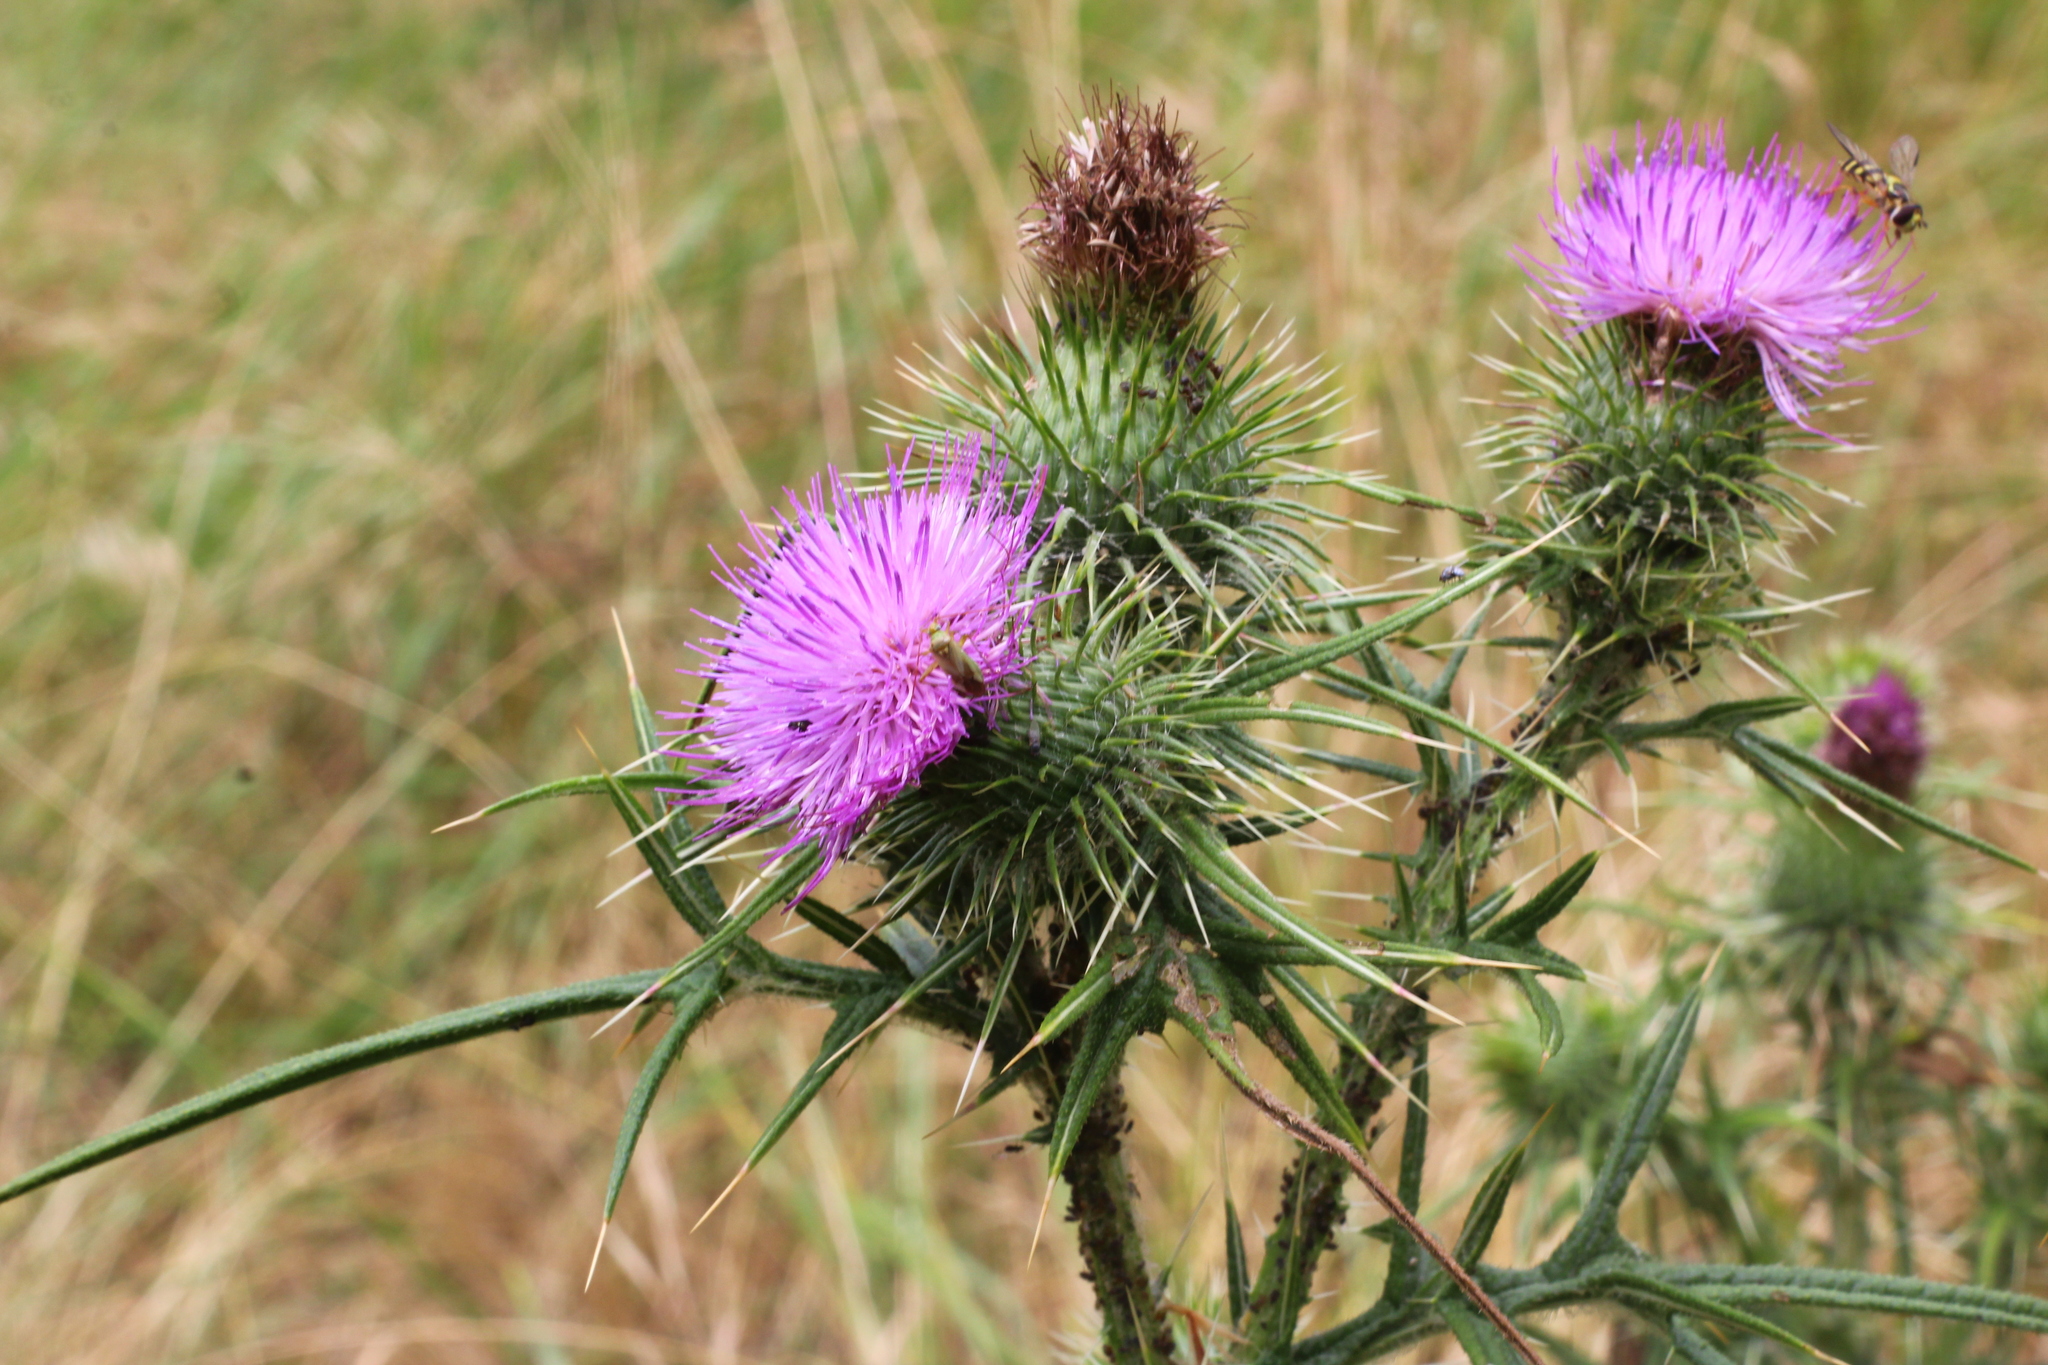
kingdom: Plantae
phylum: Tracheophyta
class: Magnoliopsida
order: Asterales
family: Asteraceae
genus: Cirsium
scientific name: Cirsium vulgare
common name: Bull thistle
